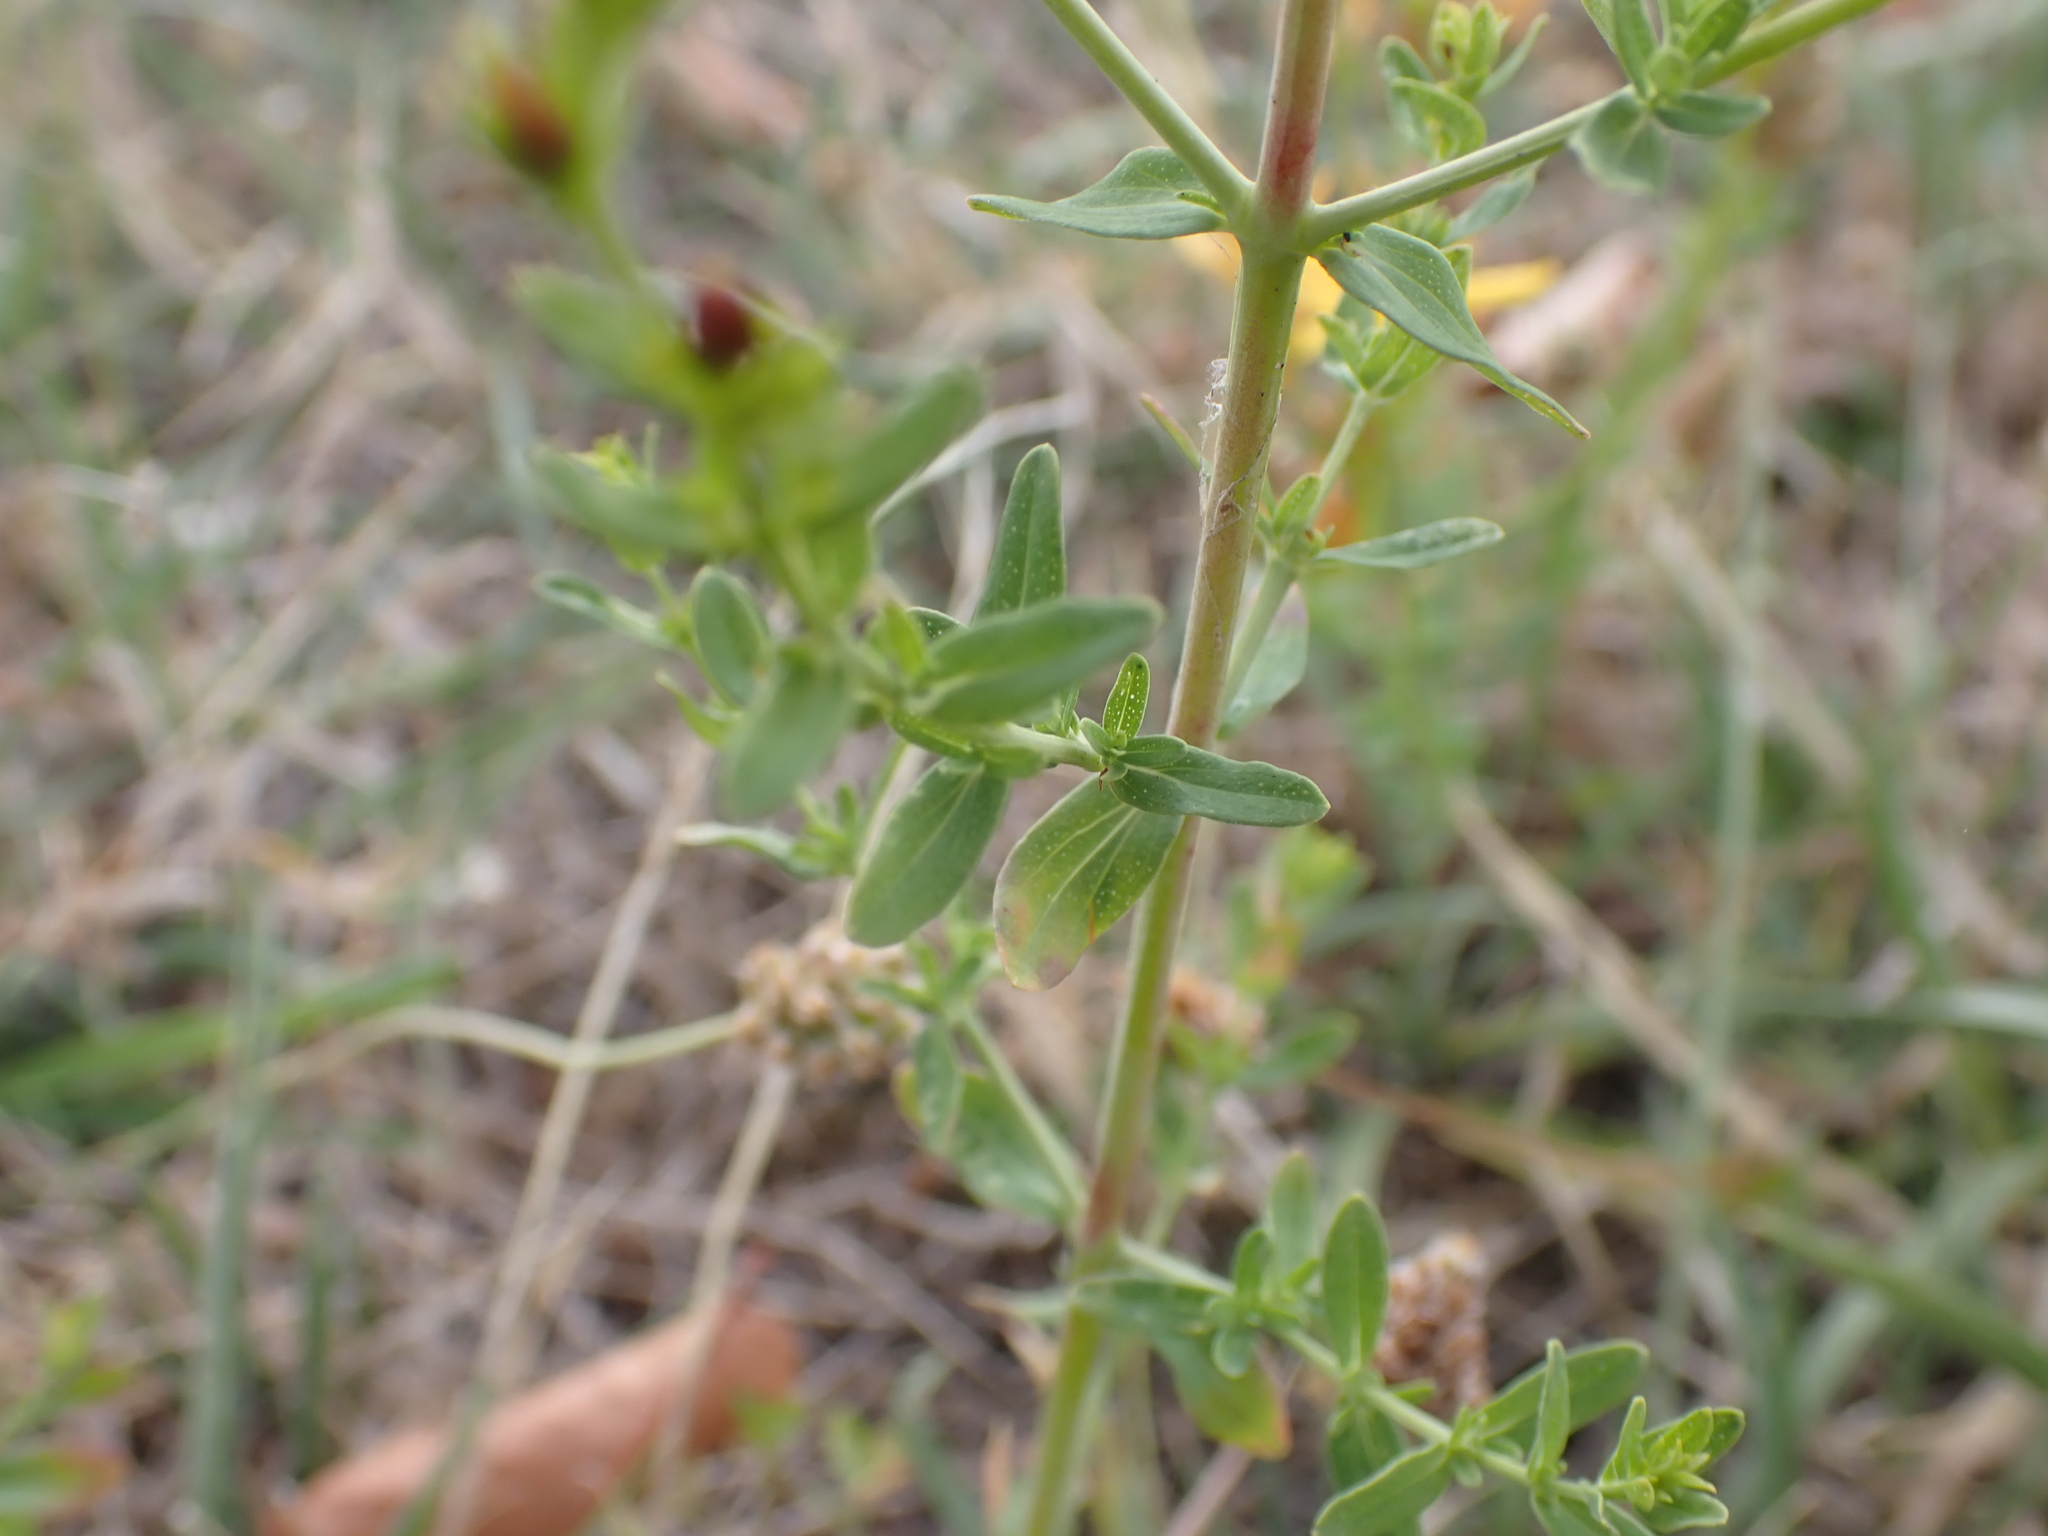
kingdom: Plantae
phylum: Tracheophyta
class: Magnoliopsida
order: Malpighiales
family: Hypericaceae
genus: Hypericum
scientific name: Hypericum perforatum
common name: Common st. johnswort
